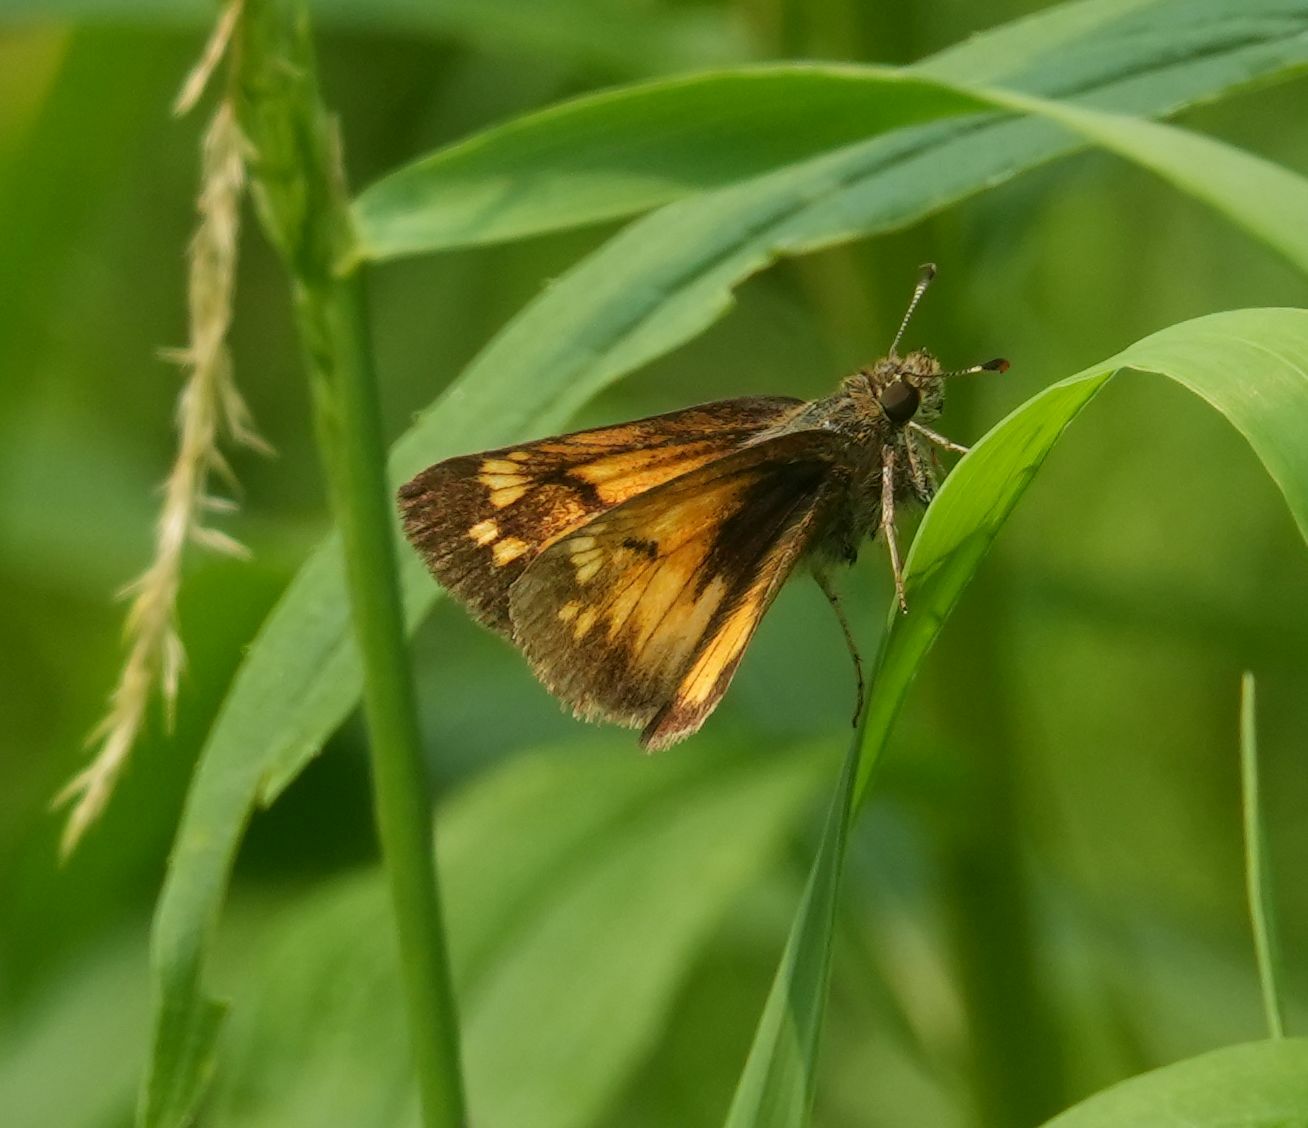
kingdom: Animalia
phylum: Arthropoda
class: Insecta
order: Lepidoptera
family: Hesperiidae
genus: Lon
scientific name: Lon hobomok
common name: Hobomok skipper
